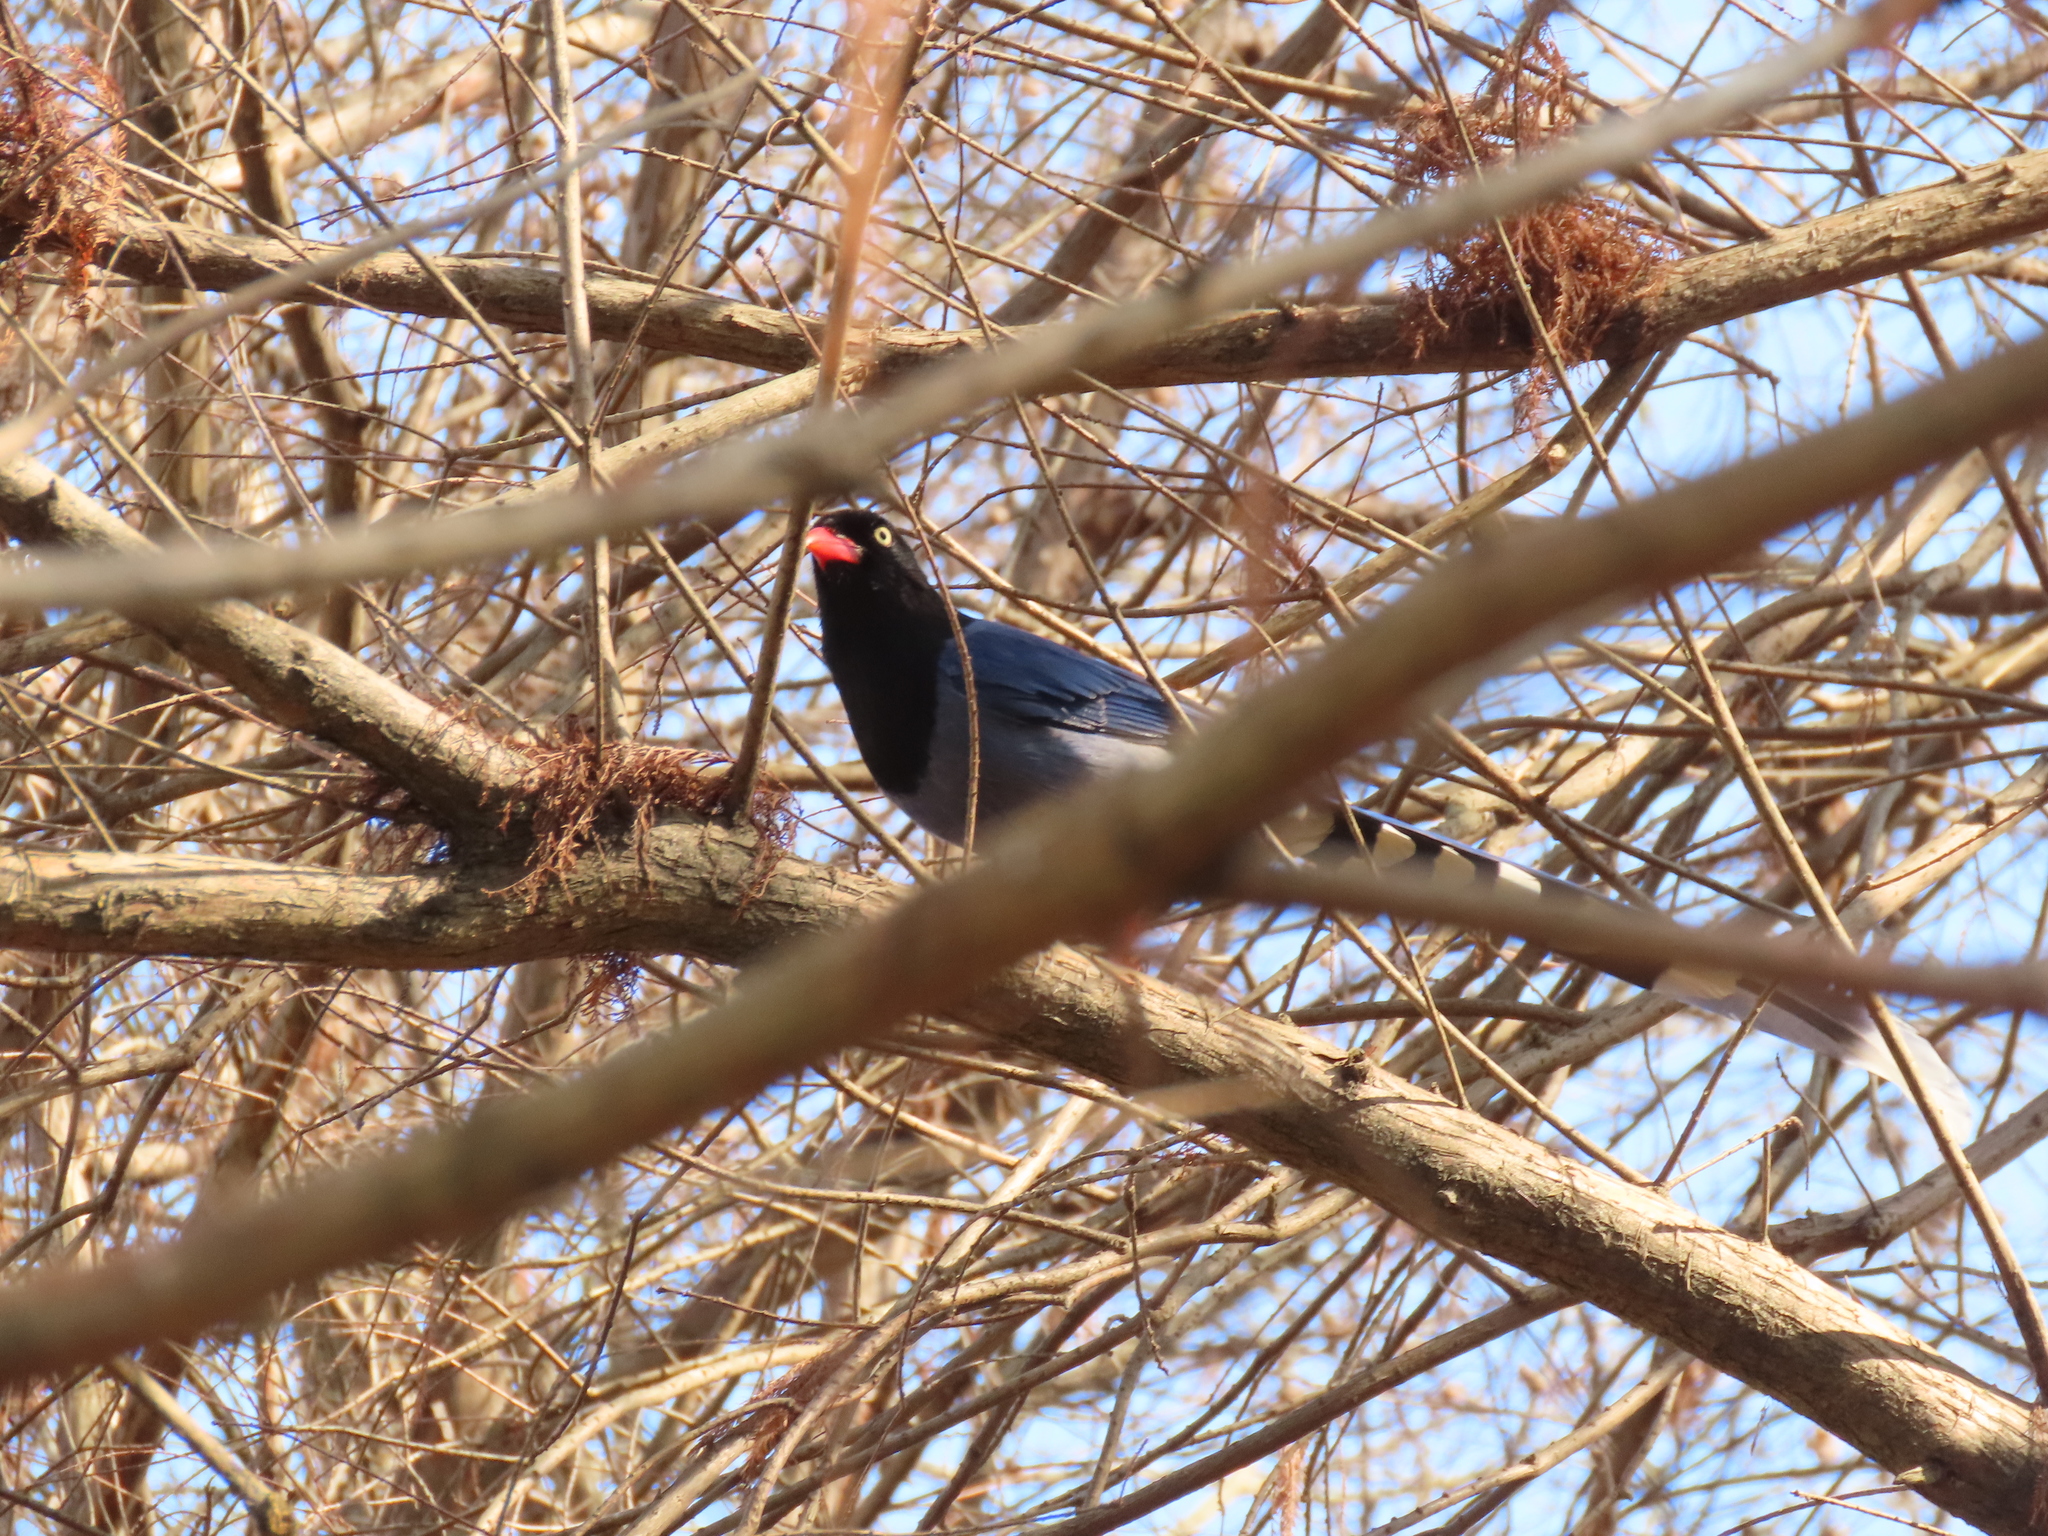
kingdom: Animalia
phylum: Chordata
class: Aves
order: Passeriformes
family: Corvidae
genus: Urocissa
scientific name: Urocissa caerulea
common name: Taiwan blue magpie
